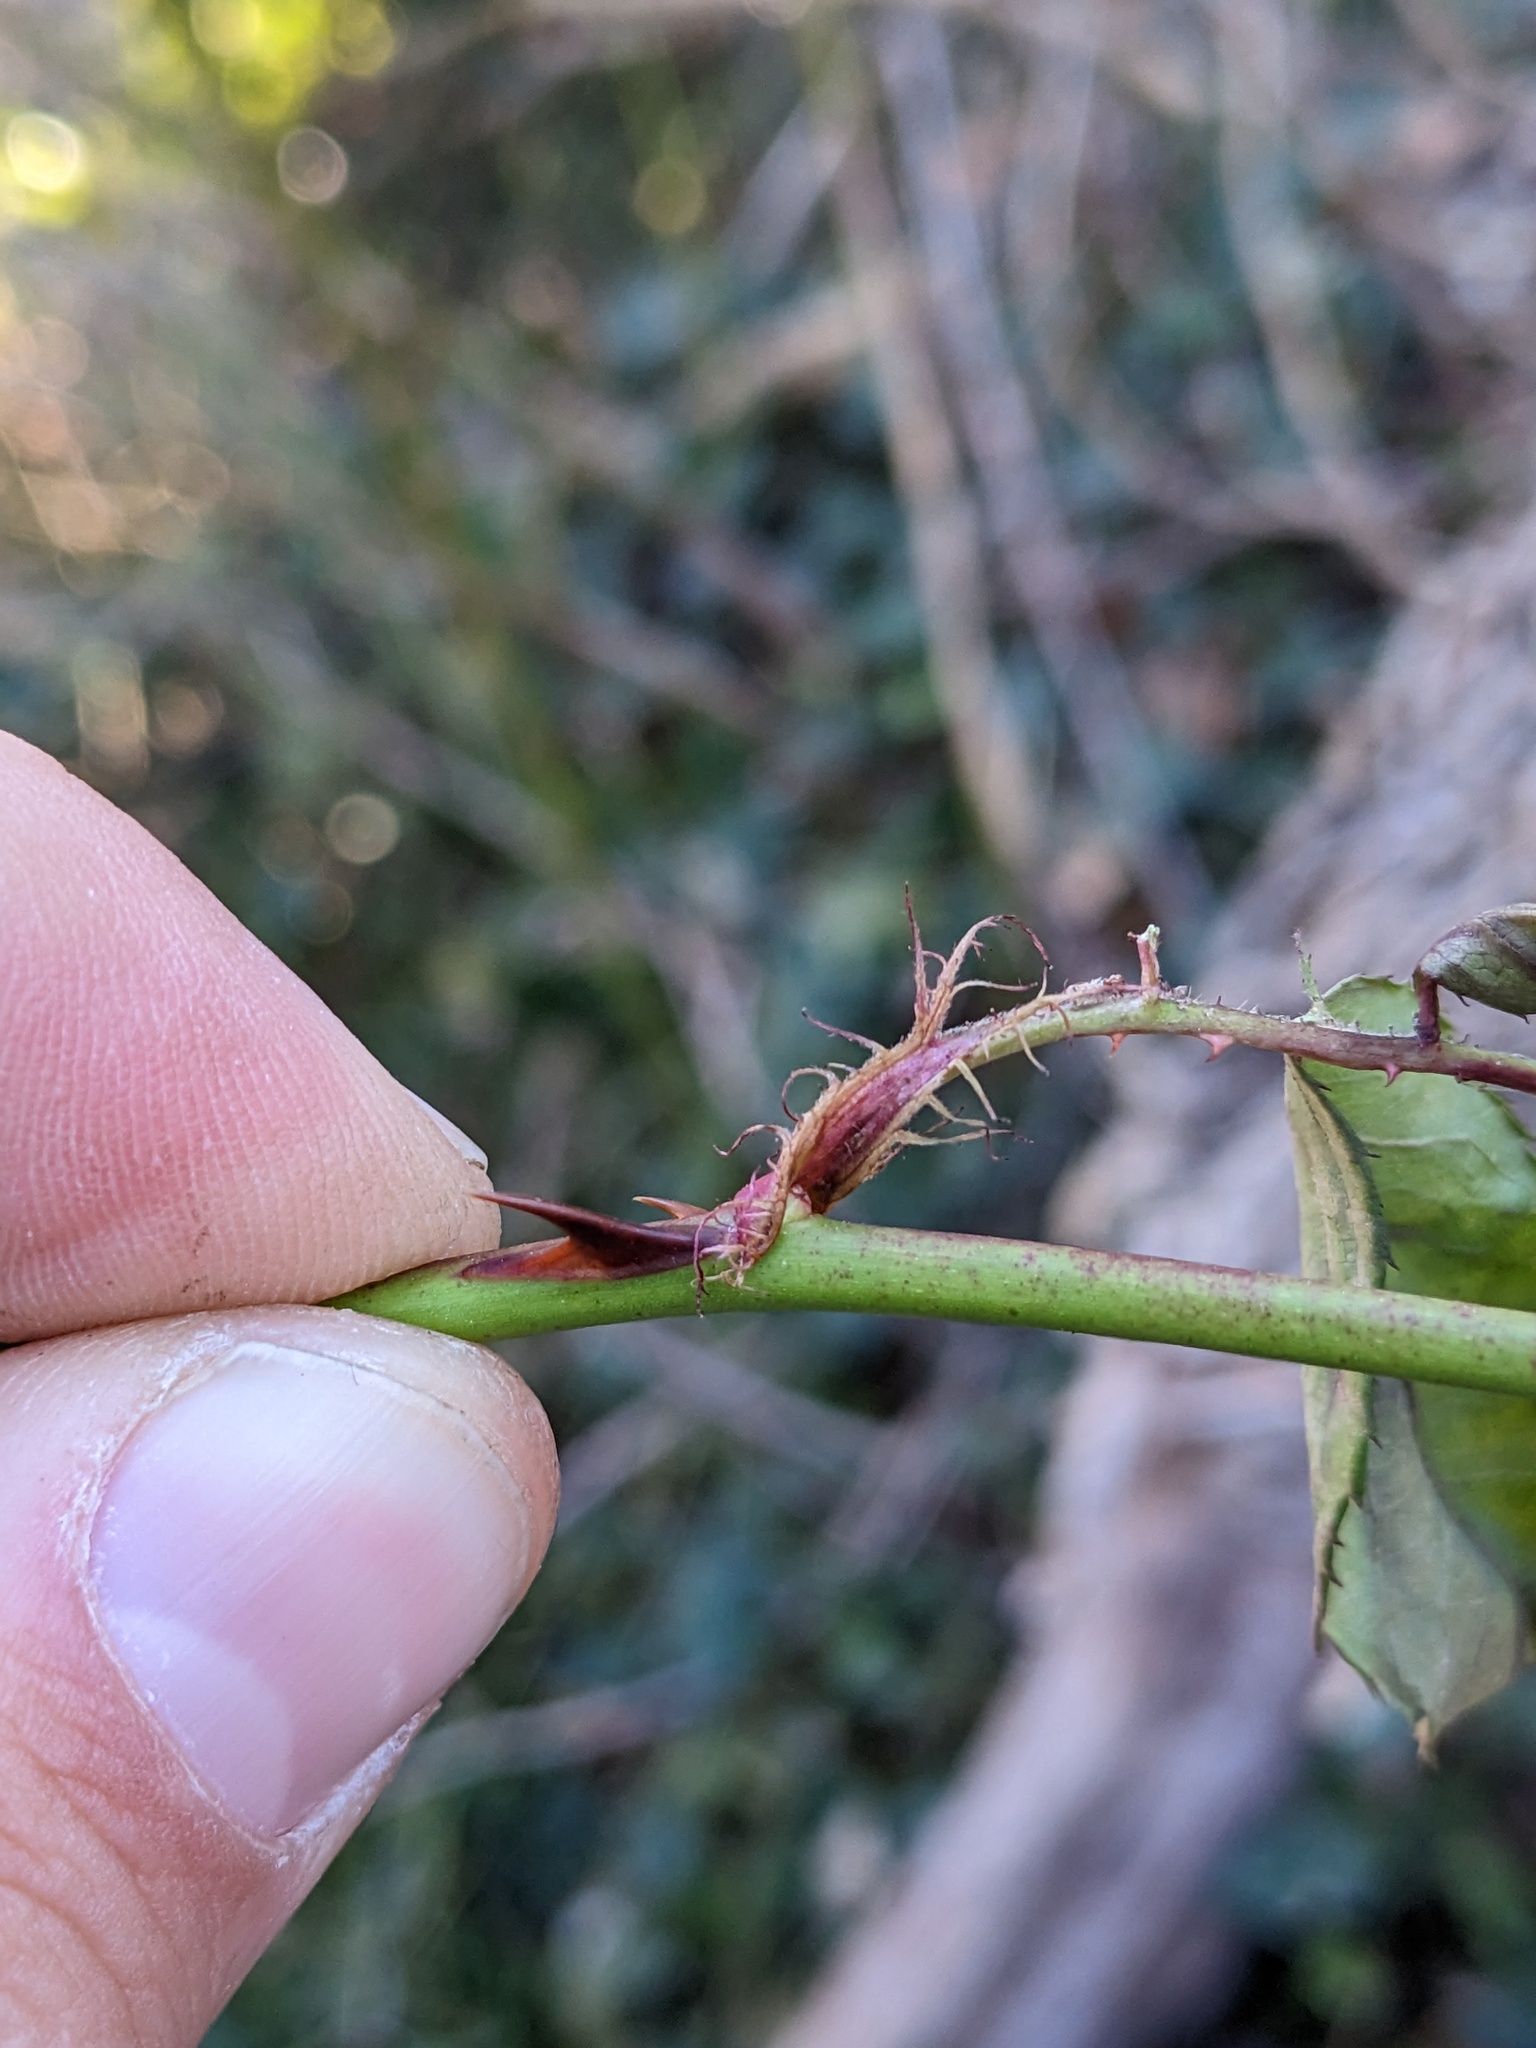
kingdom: Plantae
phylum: Tracheophyta
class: Magnoliopsida
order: Rosales
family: Rosaceae
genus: Rosa
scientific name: Rosa multiflora
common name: Multiflora rose
